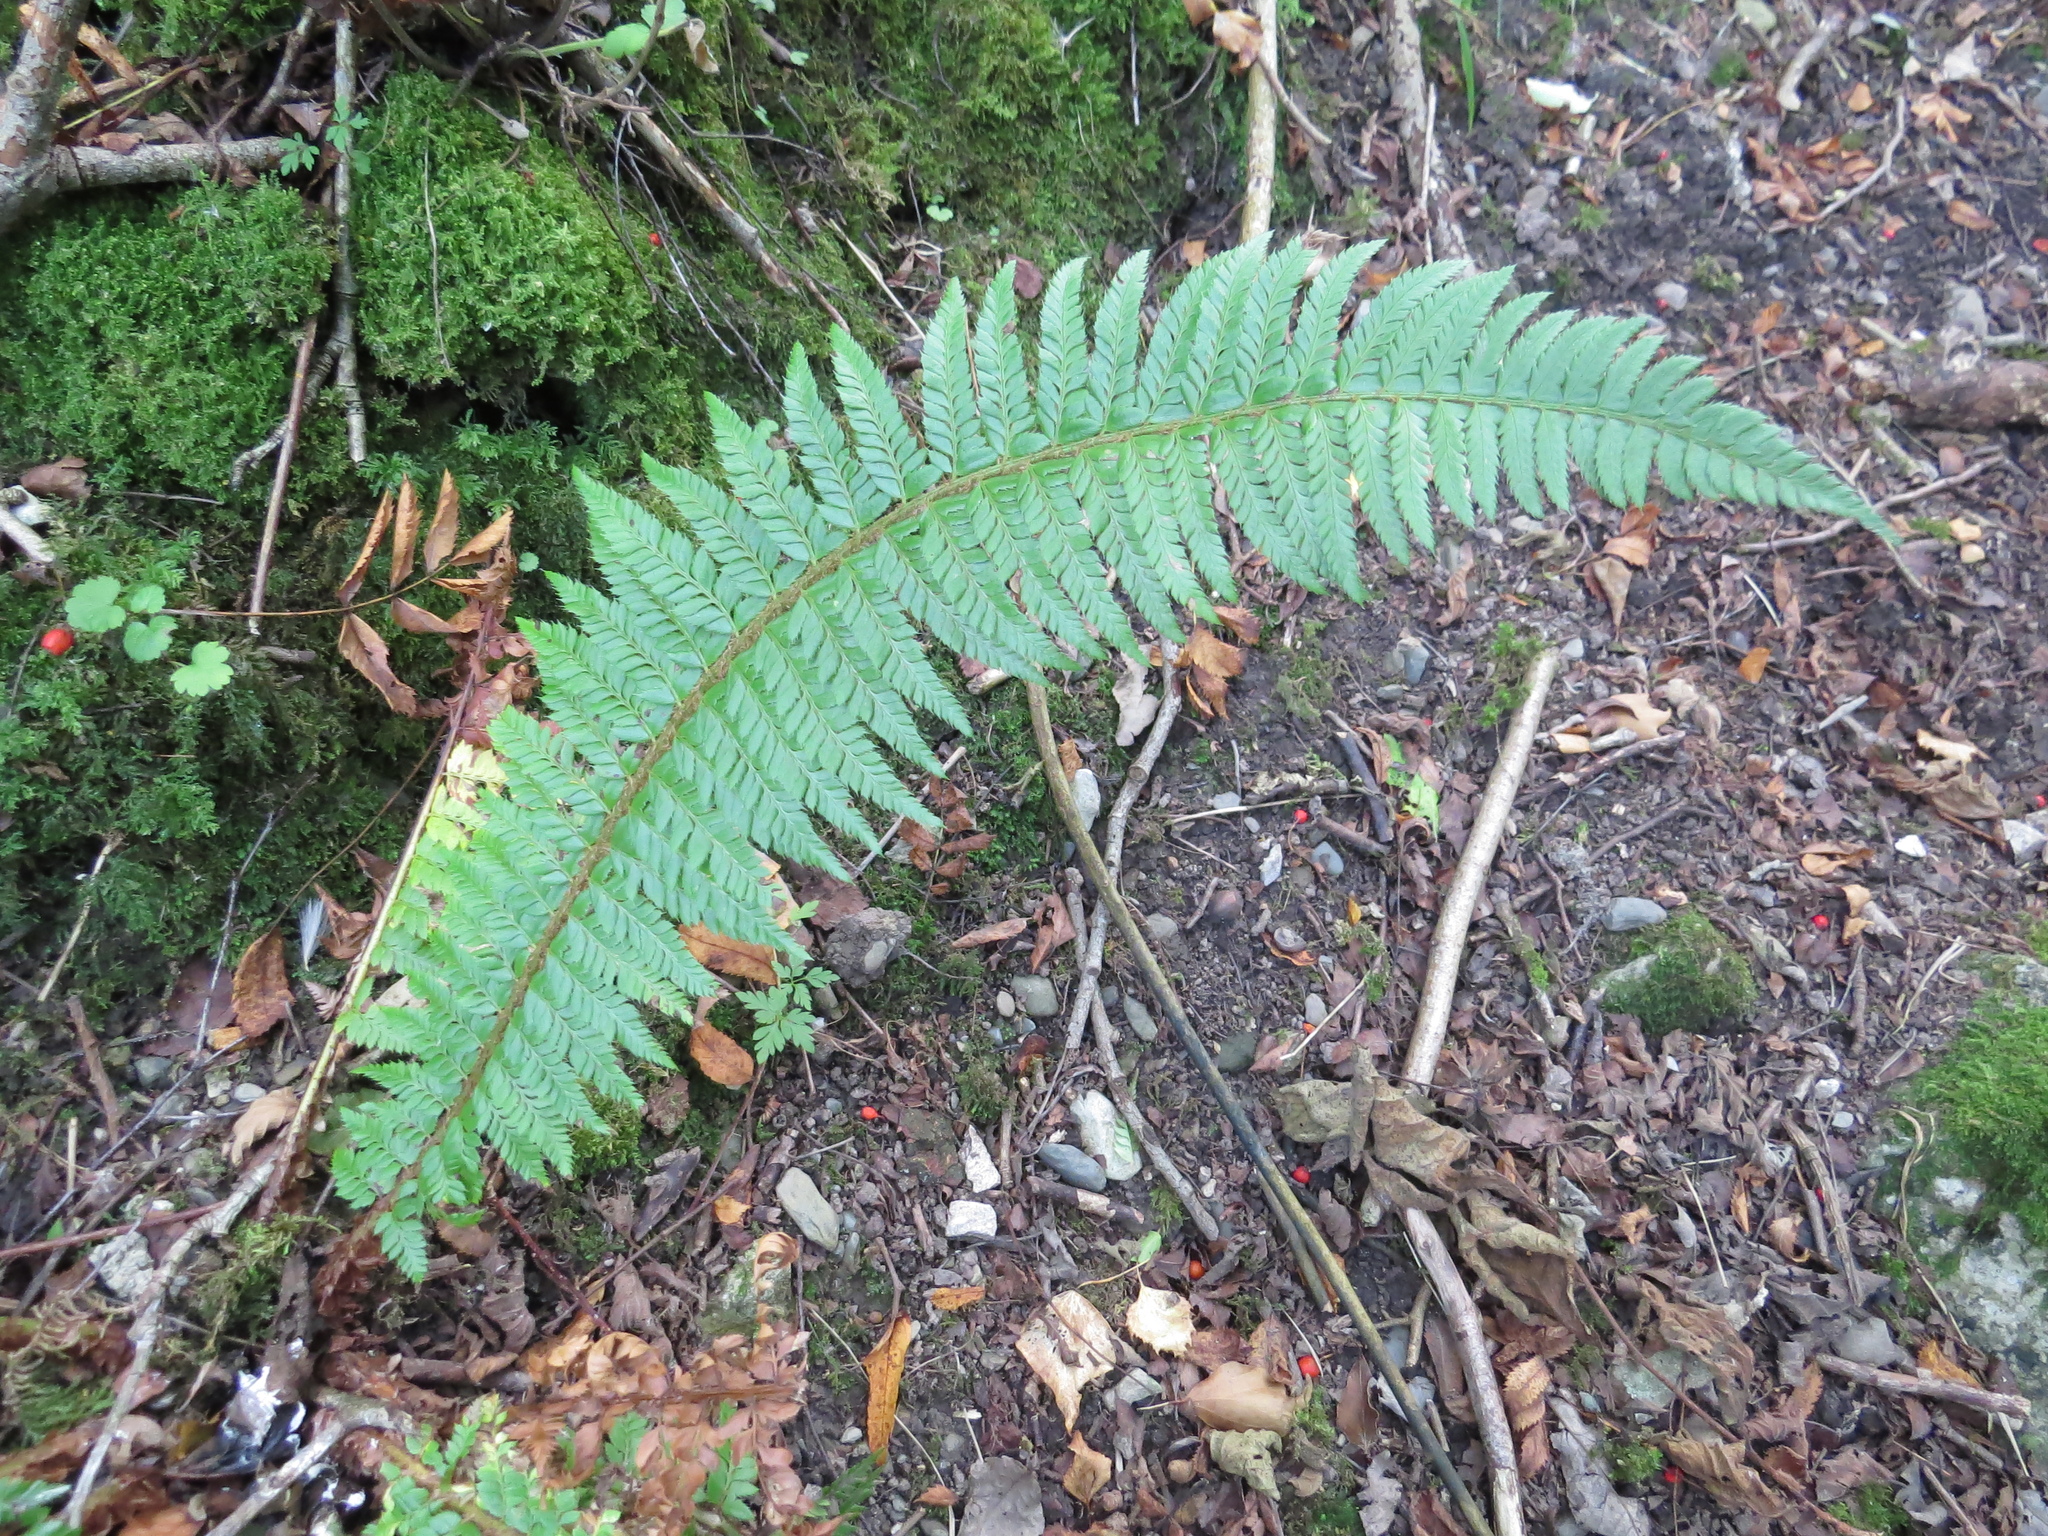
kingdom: Plantae
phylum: Tracheophyta
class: Polypodiopsida
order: Polypodiales
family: Dryopteridaceae
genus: Polystichum
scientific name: Polystichum aculeatum
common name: Hard shield-fern
